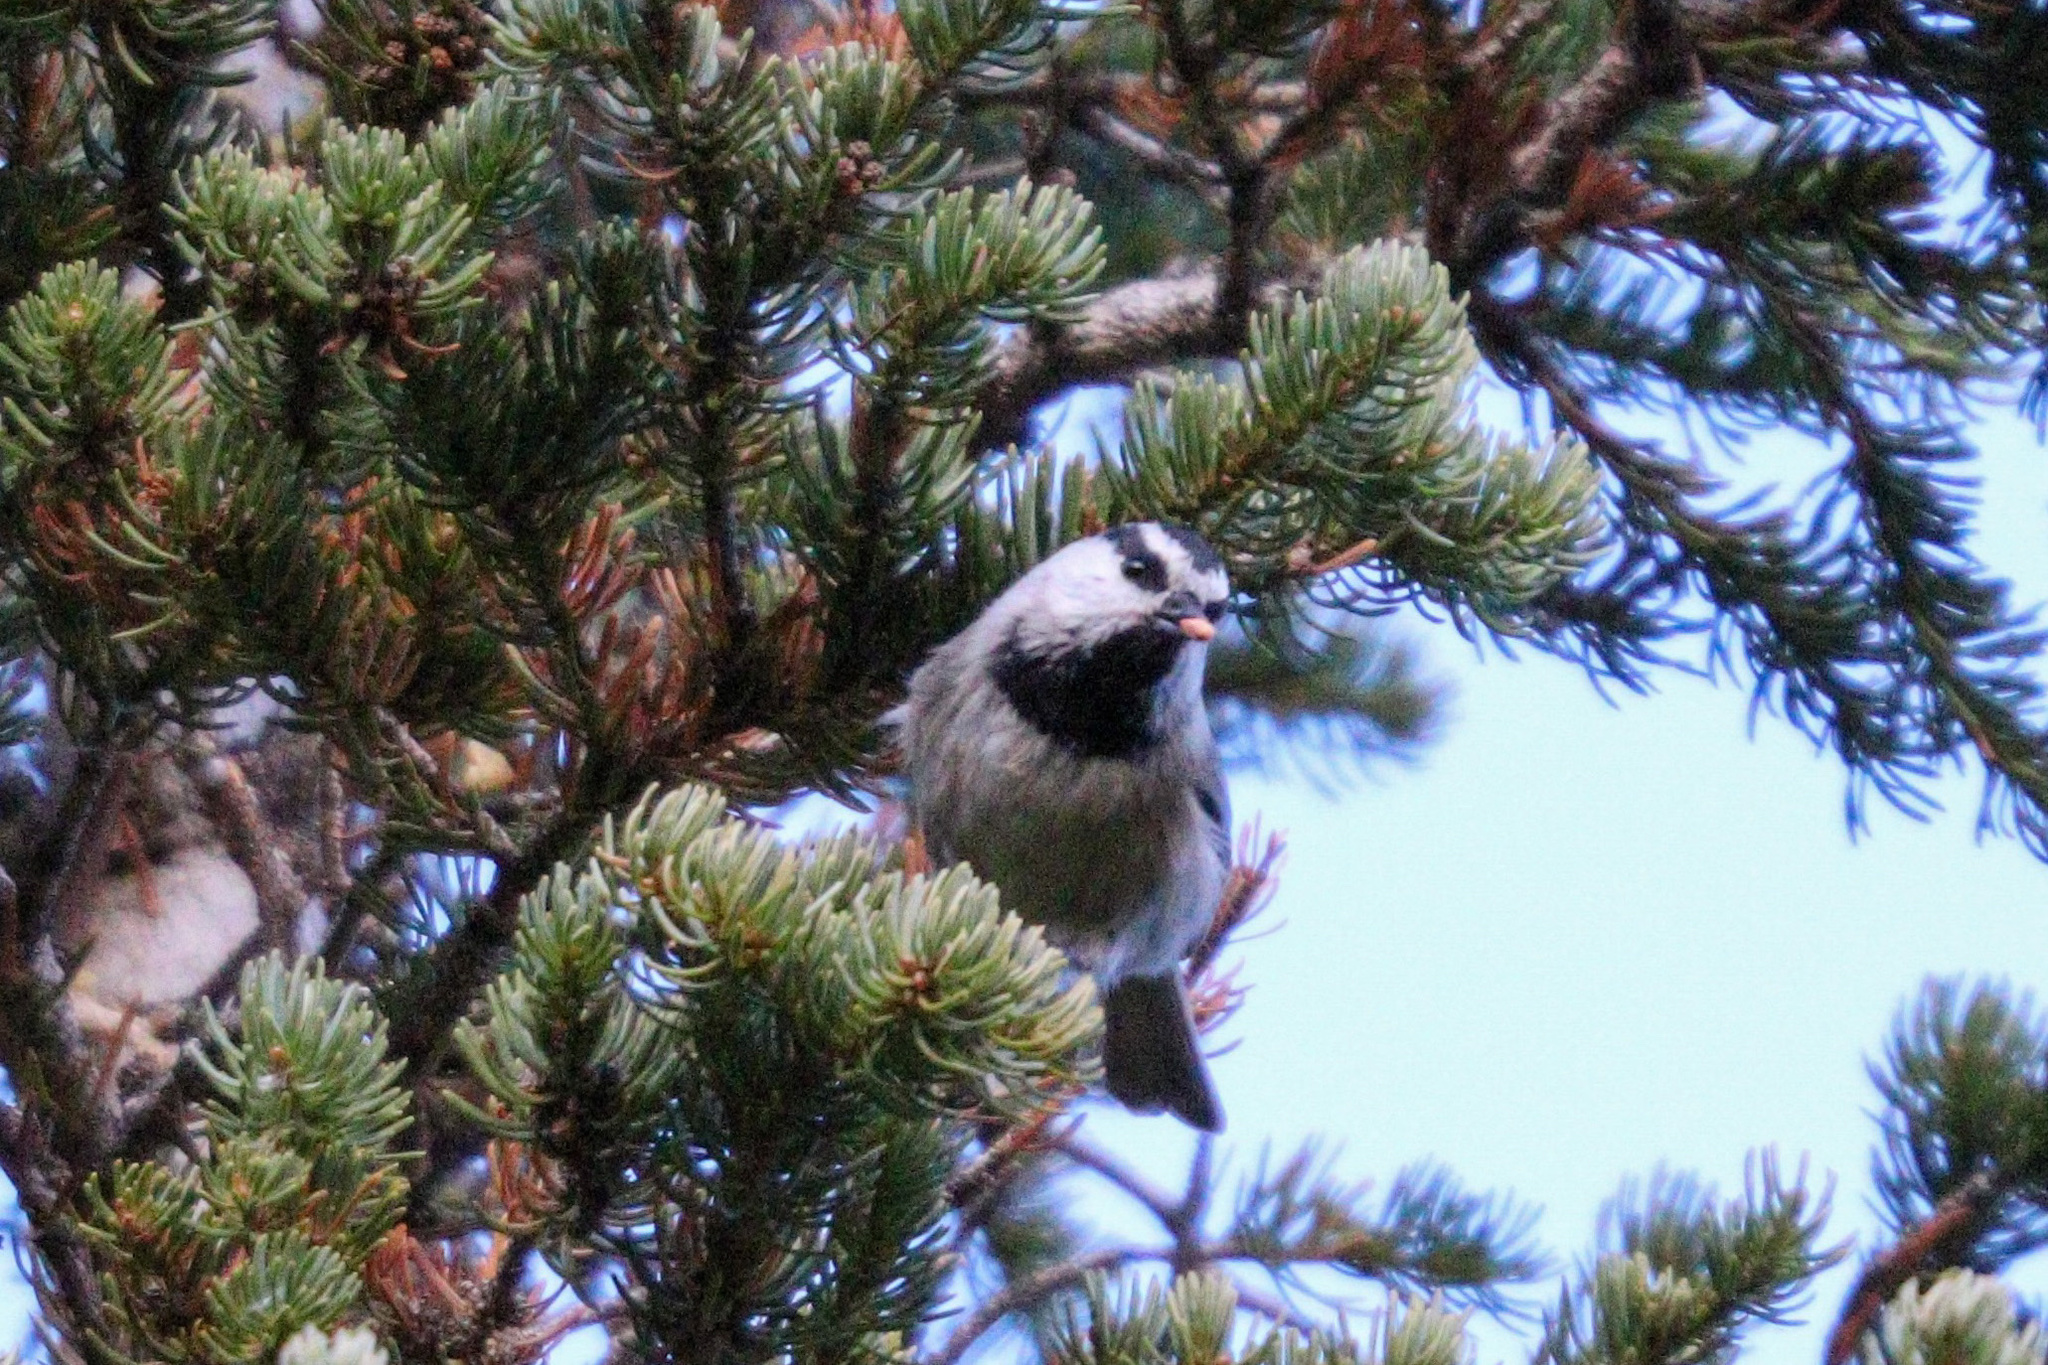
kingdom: Animalia
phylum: Chordata
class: Aves
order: Passeriformes
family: Paridae
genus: Poecile
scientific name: Poecile gambeli
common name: Mountain chickadee
